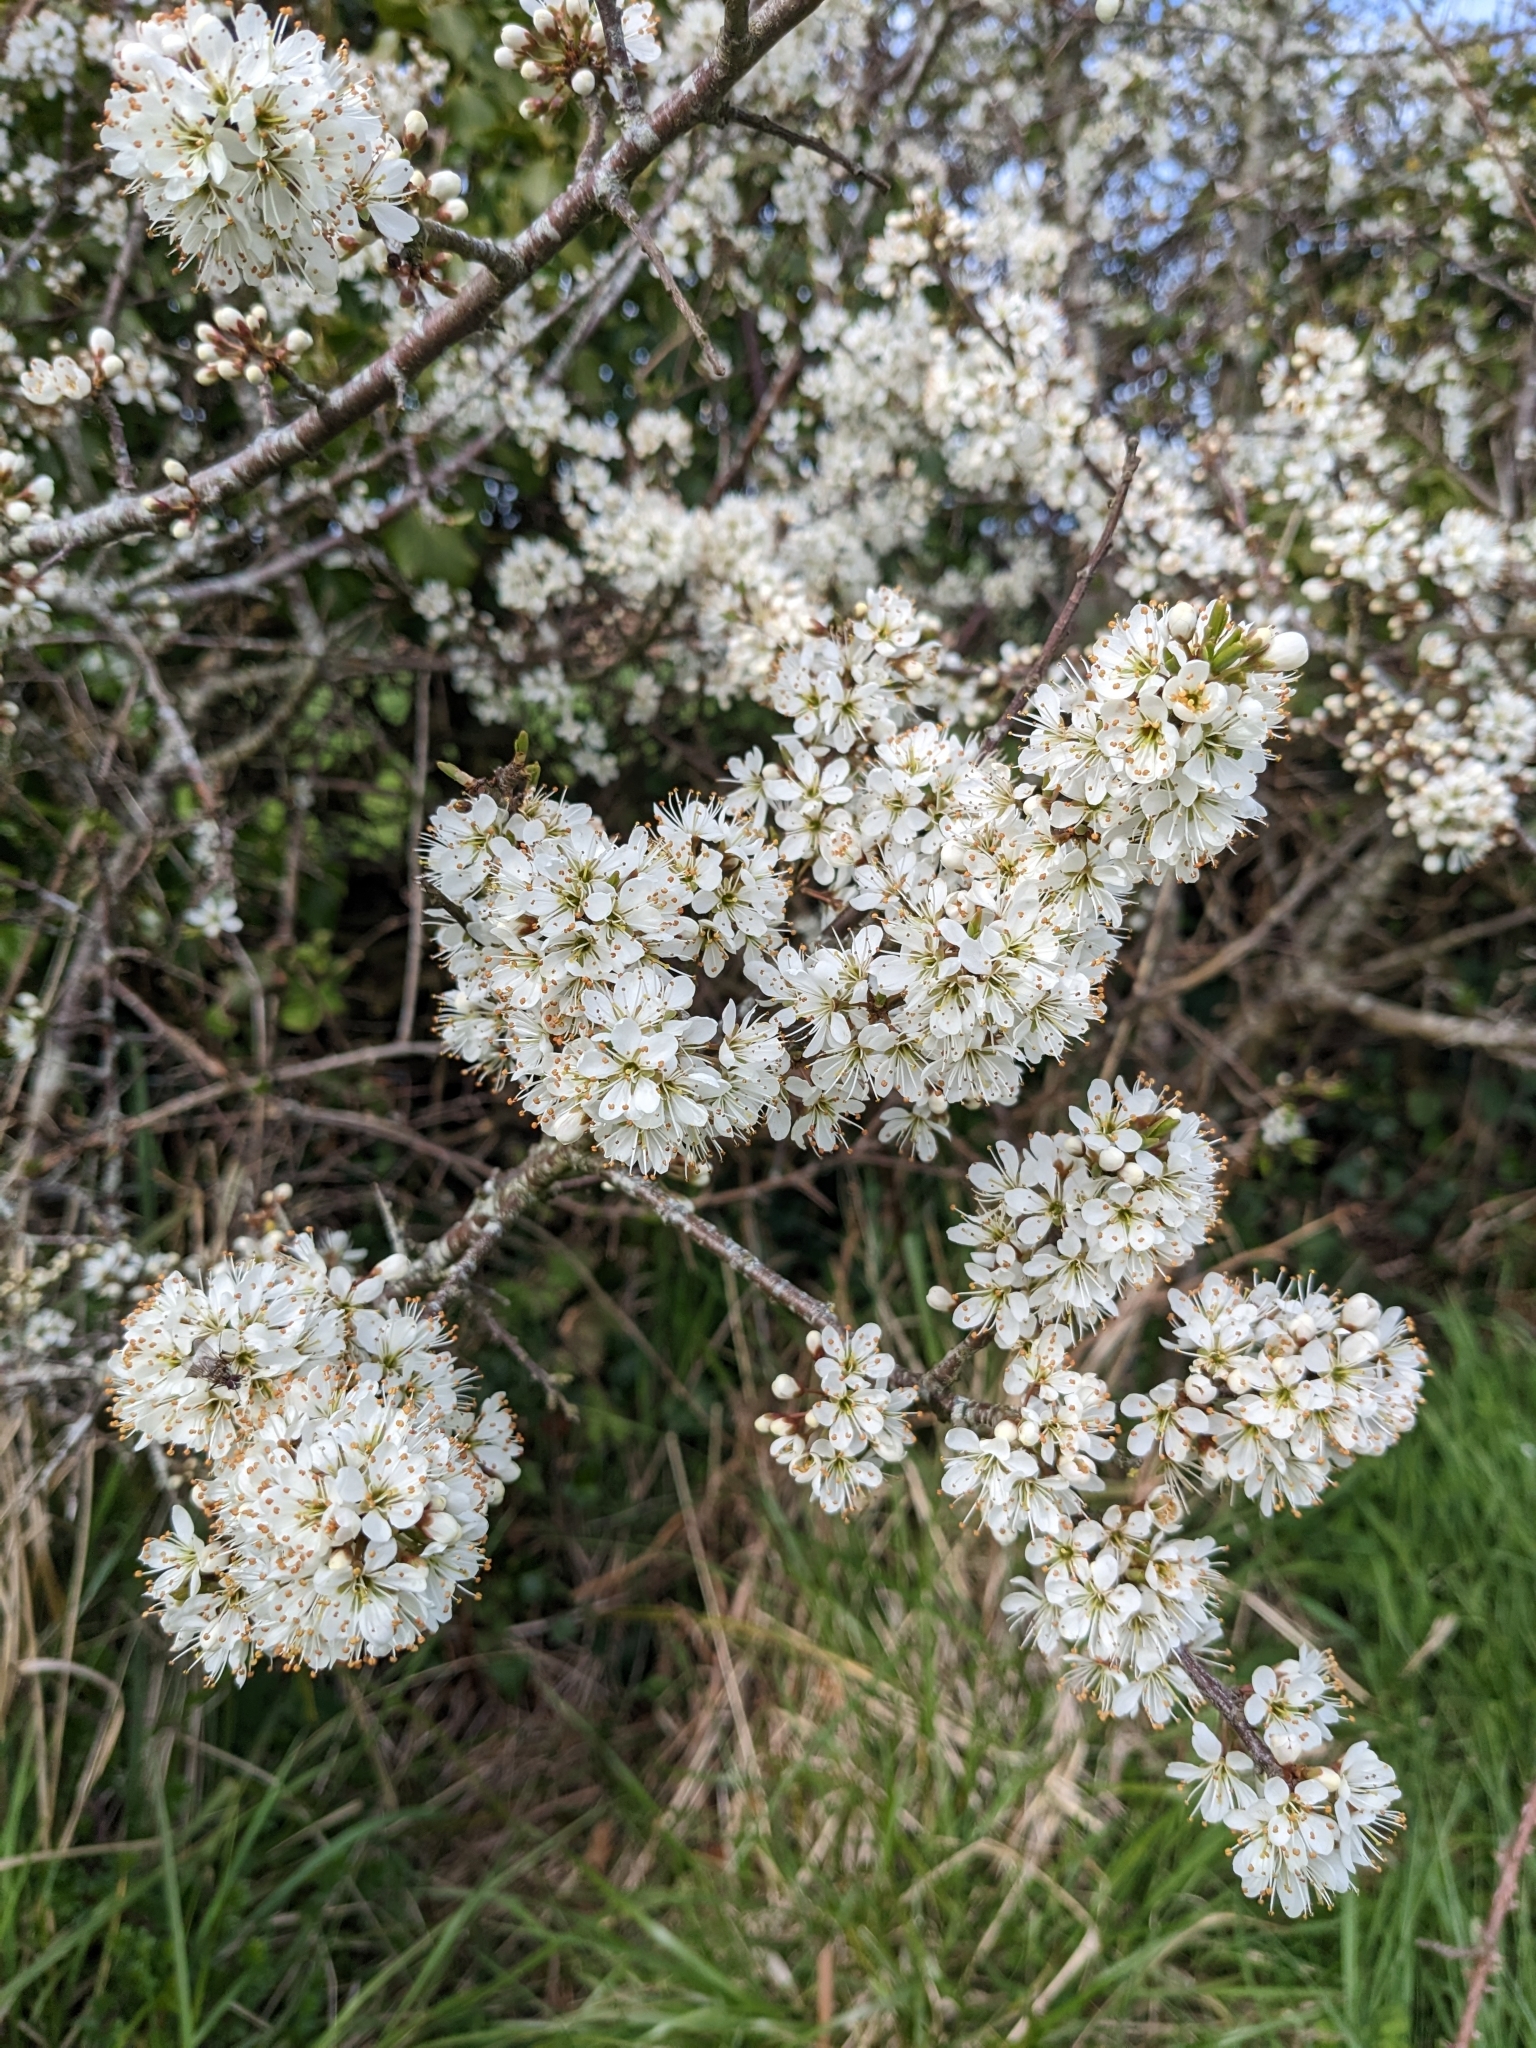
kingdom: Plantae
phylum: Tracheophyta
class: Magnoliopsida
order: Rosales
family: Rosaceae
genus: Prunus
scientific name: Prunus spinosa
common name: Blackthorn
